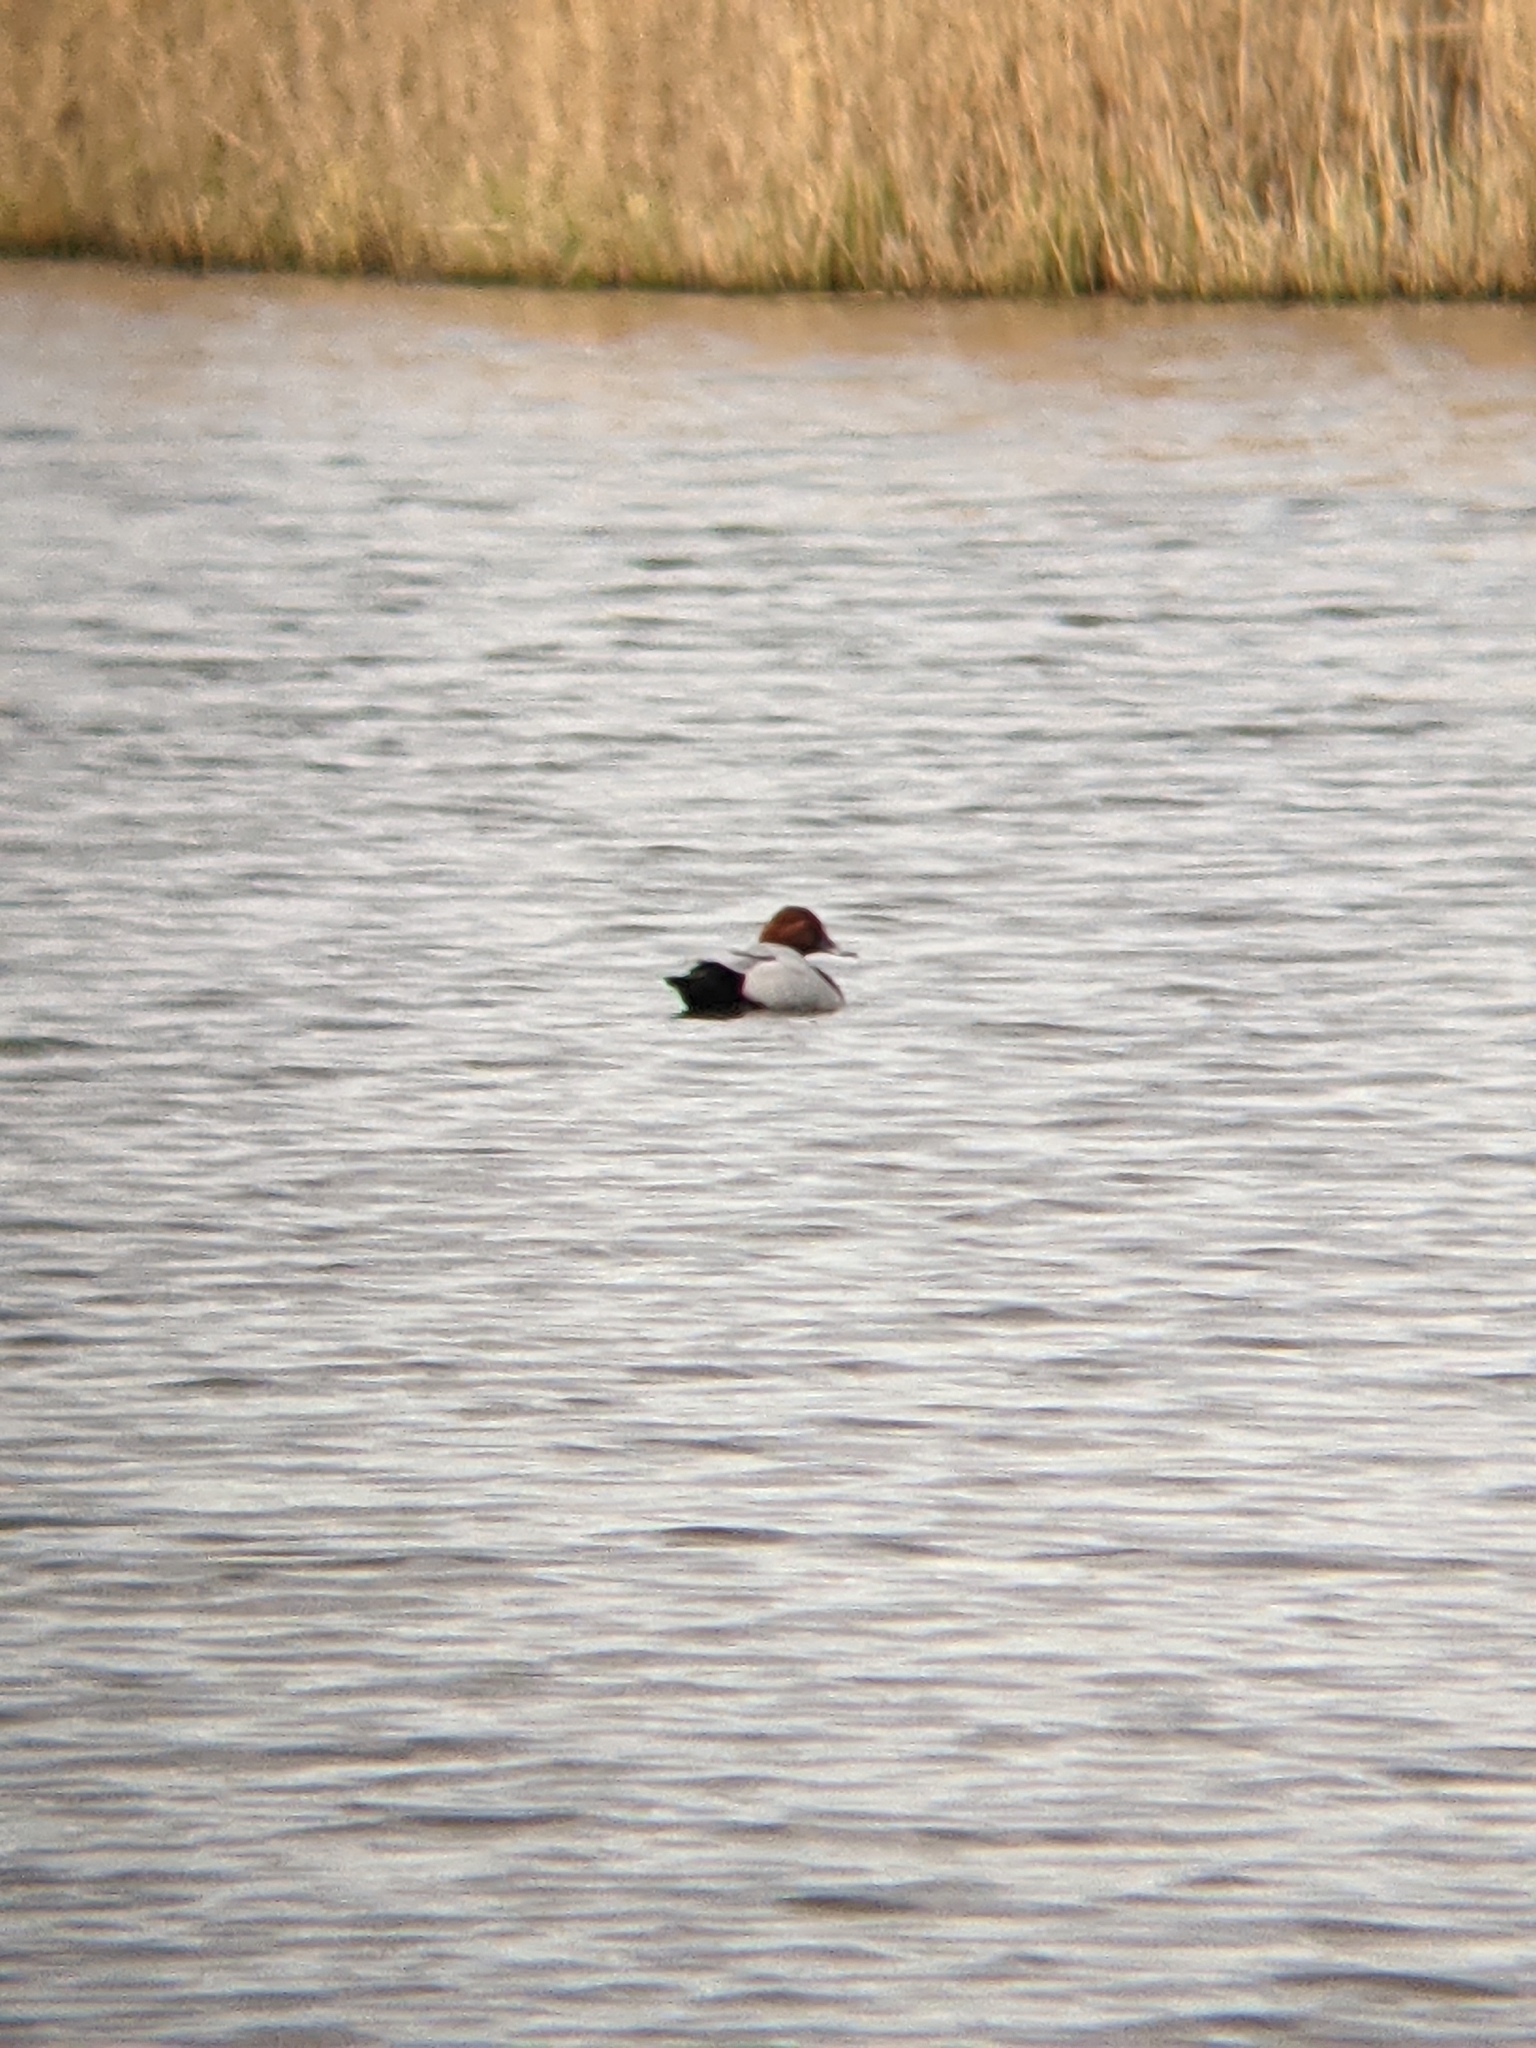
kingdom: Animalia
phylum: Chordata
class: Aves
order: Anseriformes
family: Anatidae
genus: Aythya
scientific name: Aythya ferina
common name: Common pochard
